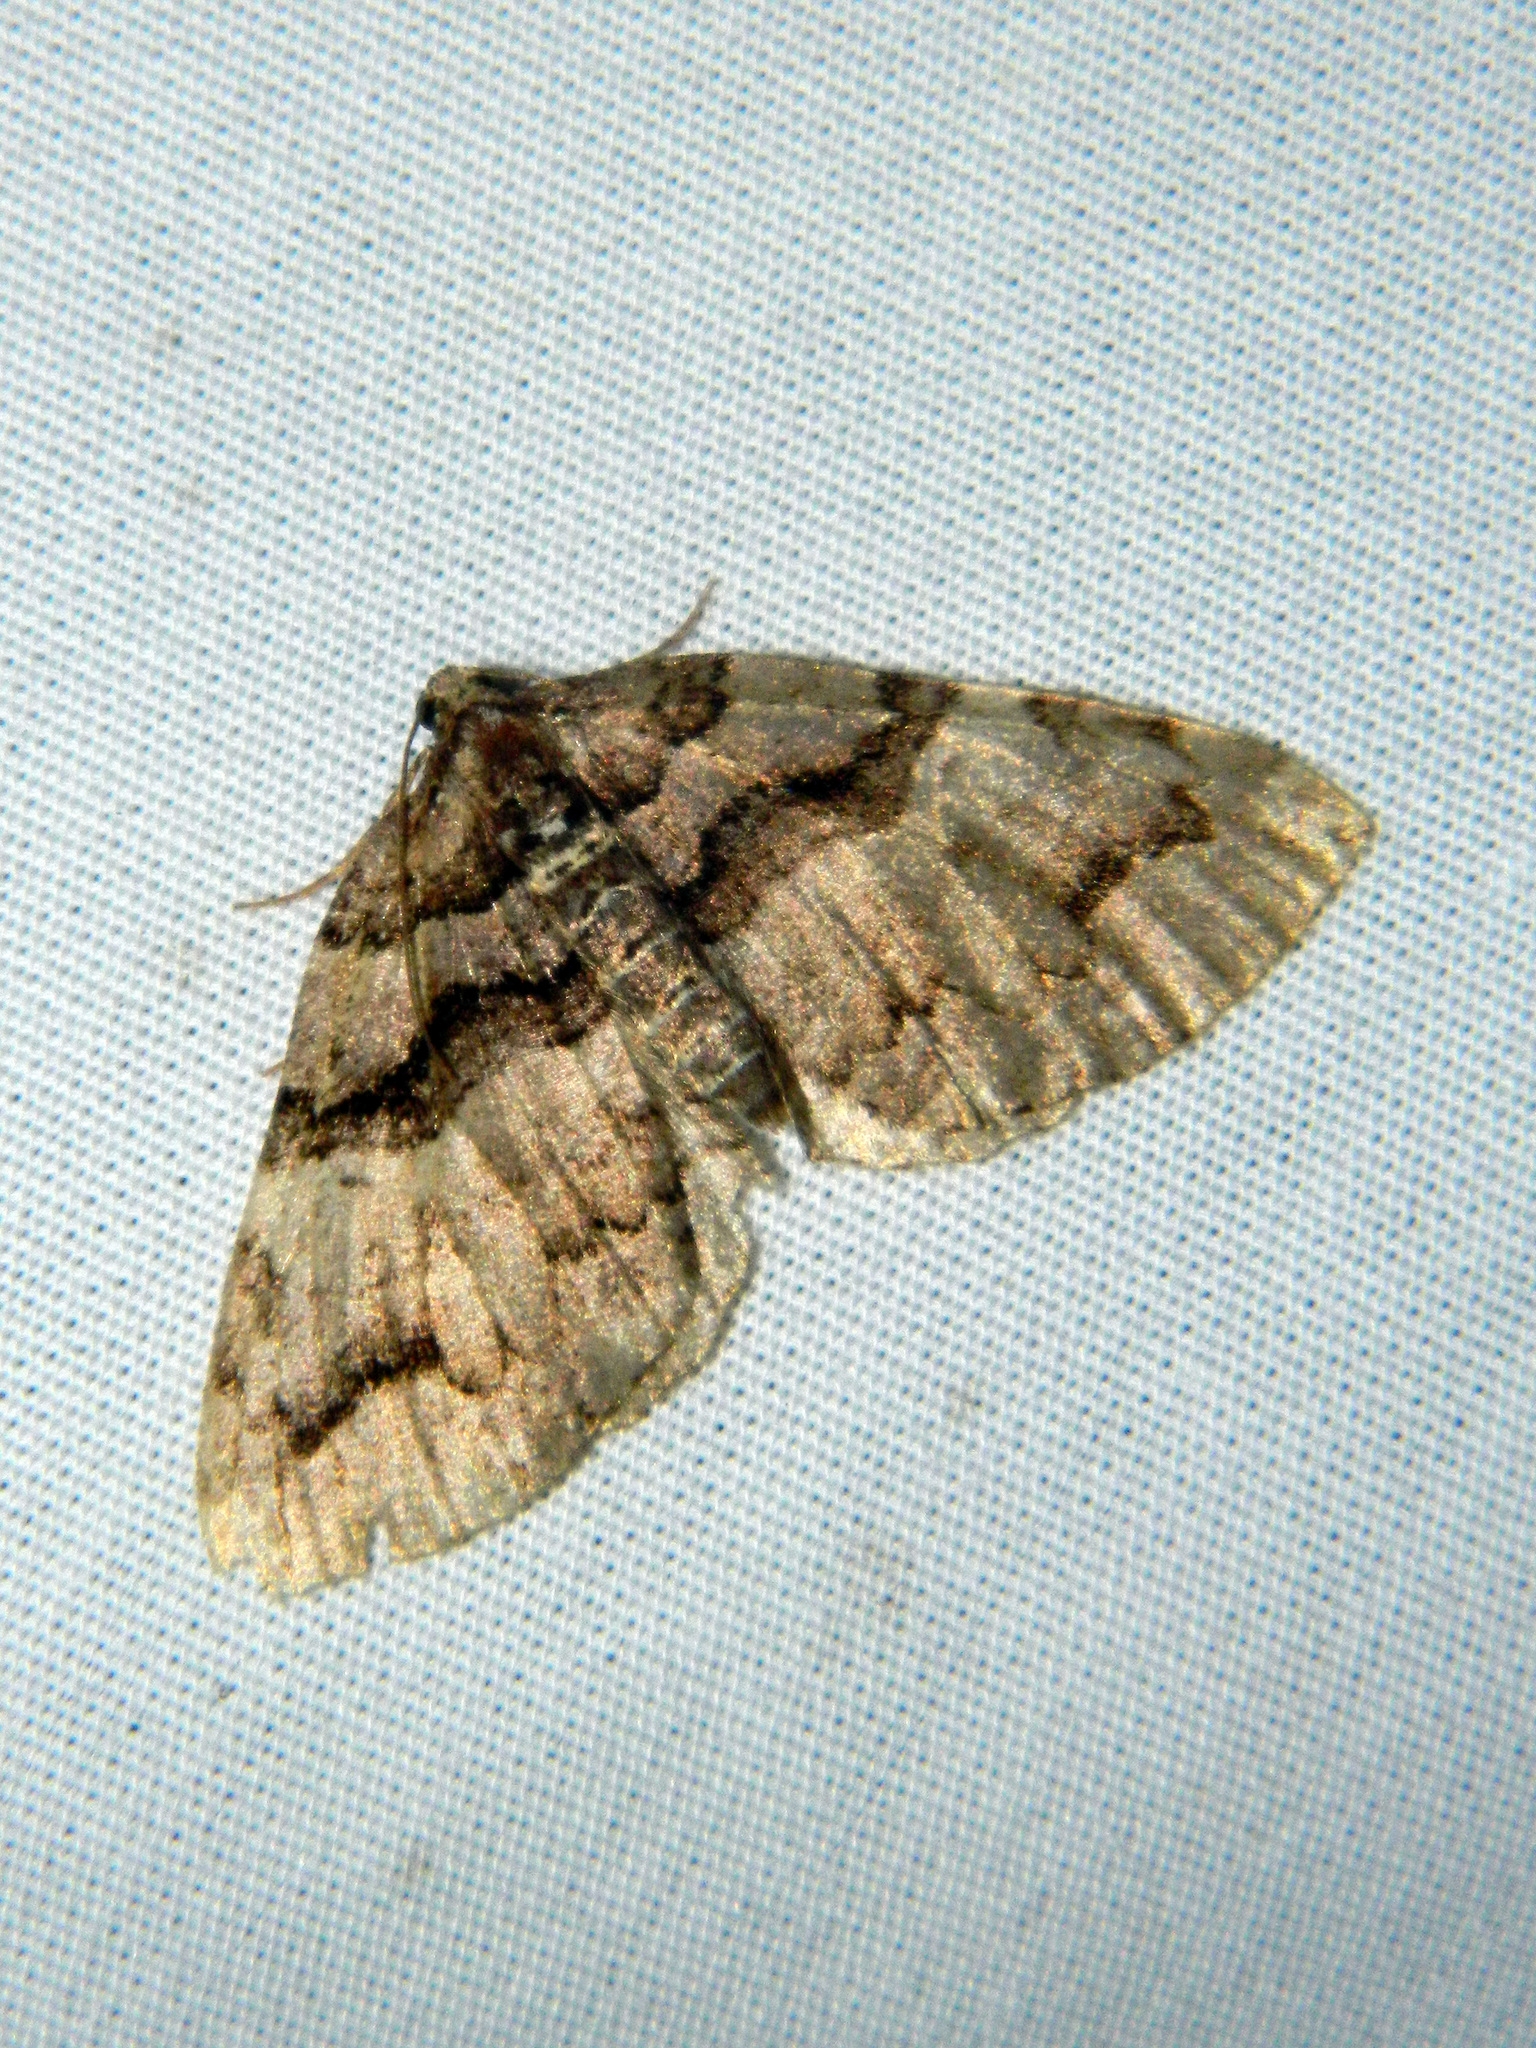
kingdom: Animalia
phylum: Arthropoda
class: Insecta
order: Lepidoptera
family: Geometridae
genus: Anticlea
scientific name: Anticlea vasiliata
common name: Variable carpet
